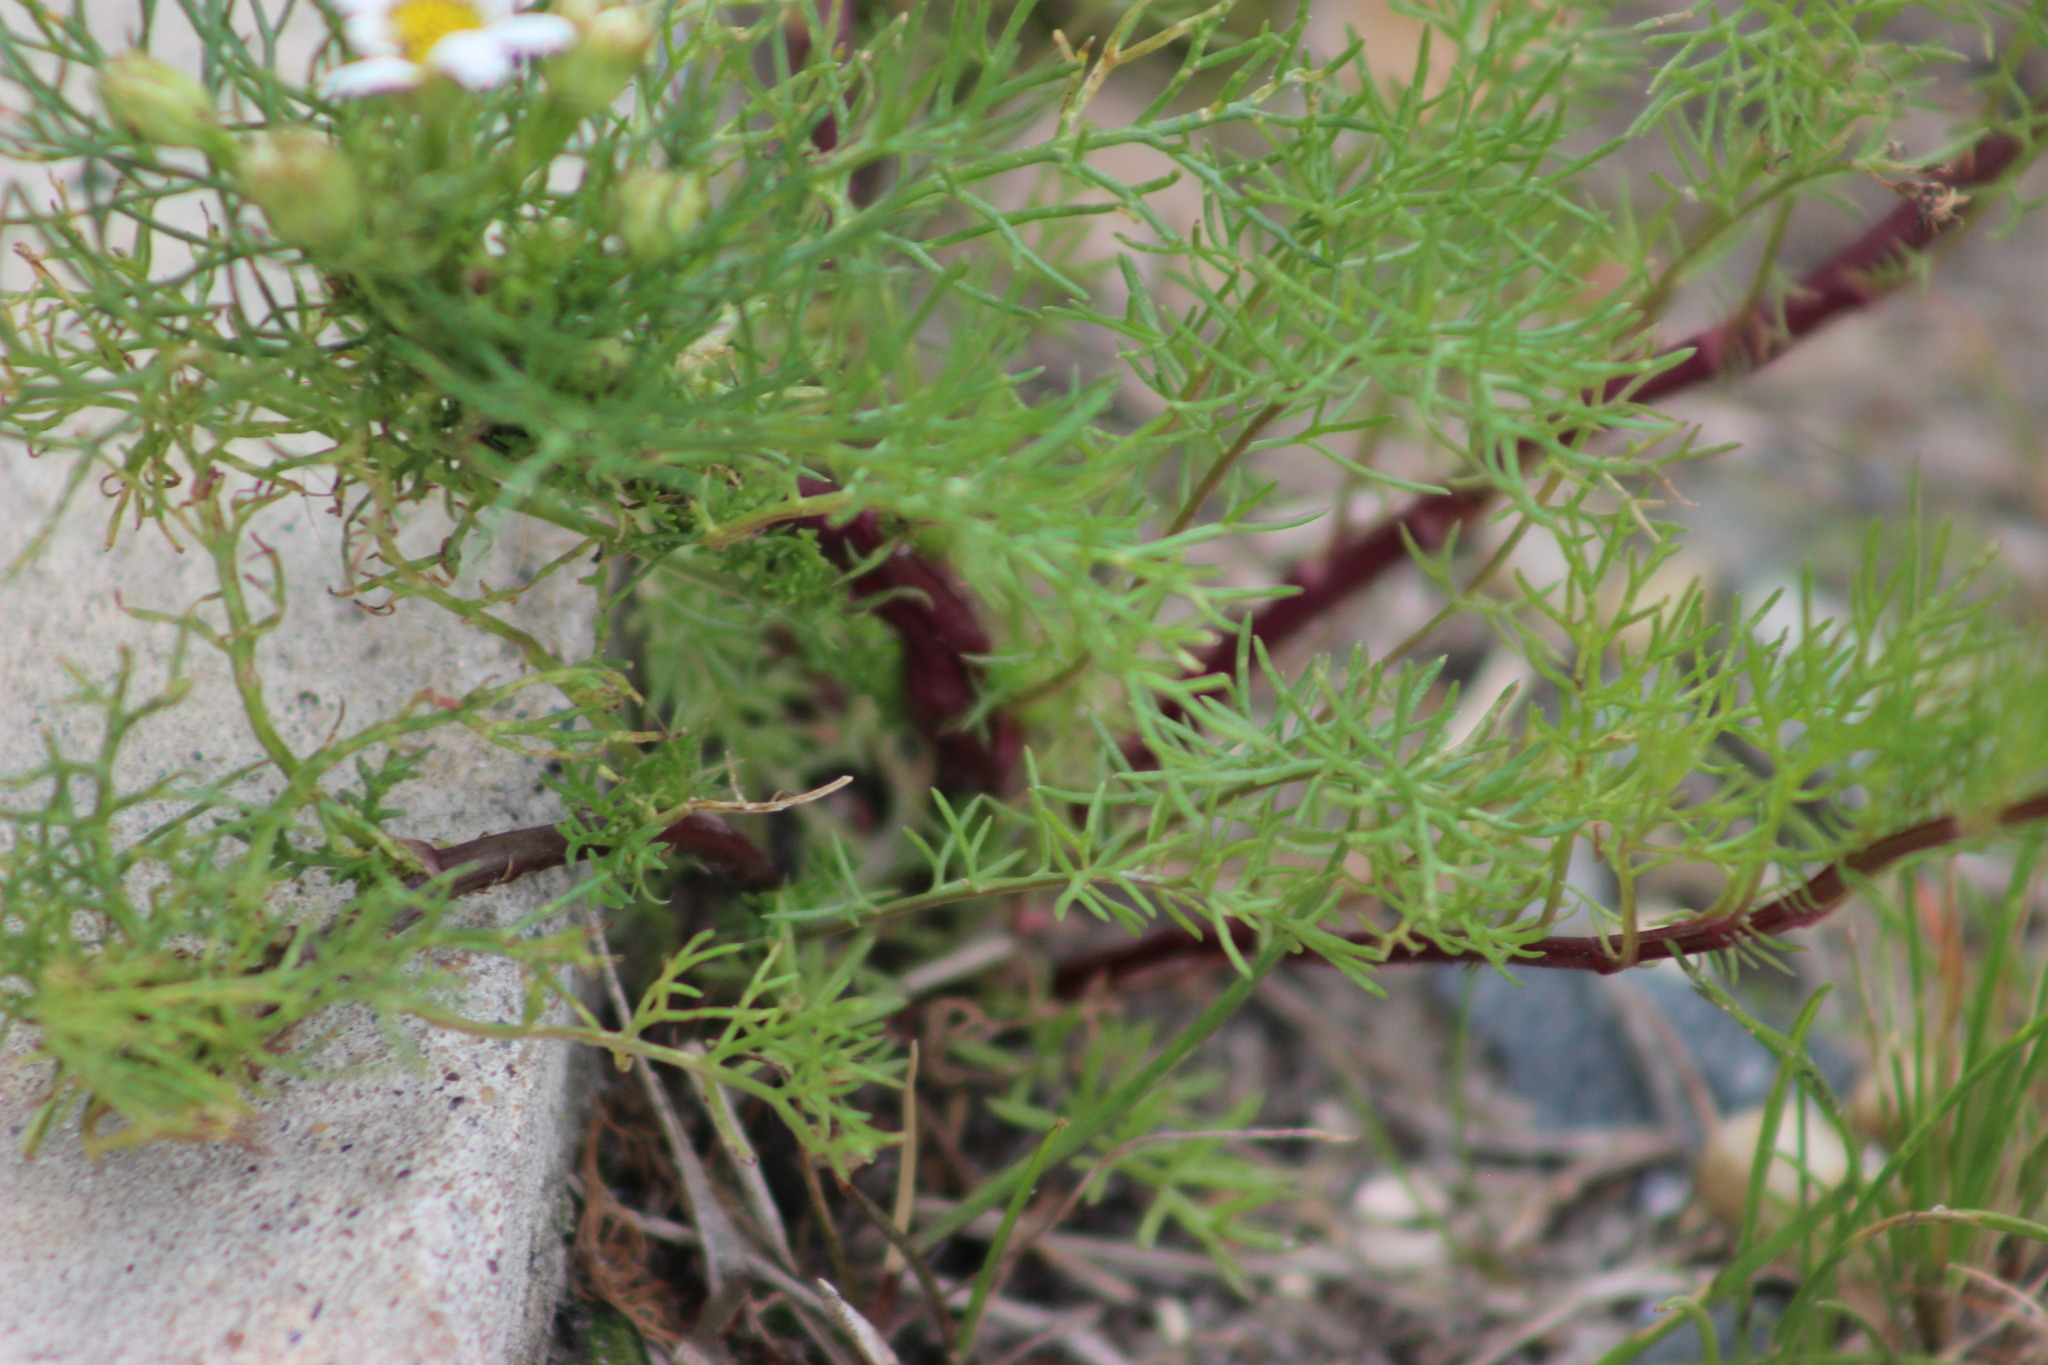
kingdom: Plantae
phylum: Tracheophyta
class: Magnoliopsida
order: Asterales
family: Asteraceae
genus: Tripleurospermum
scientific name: Tripleurospermum inodorum
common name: Scentless mayweed
